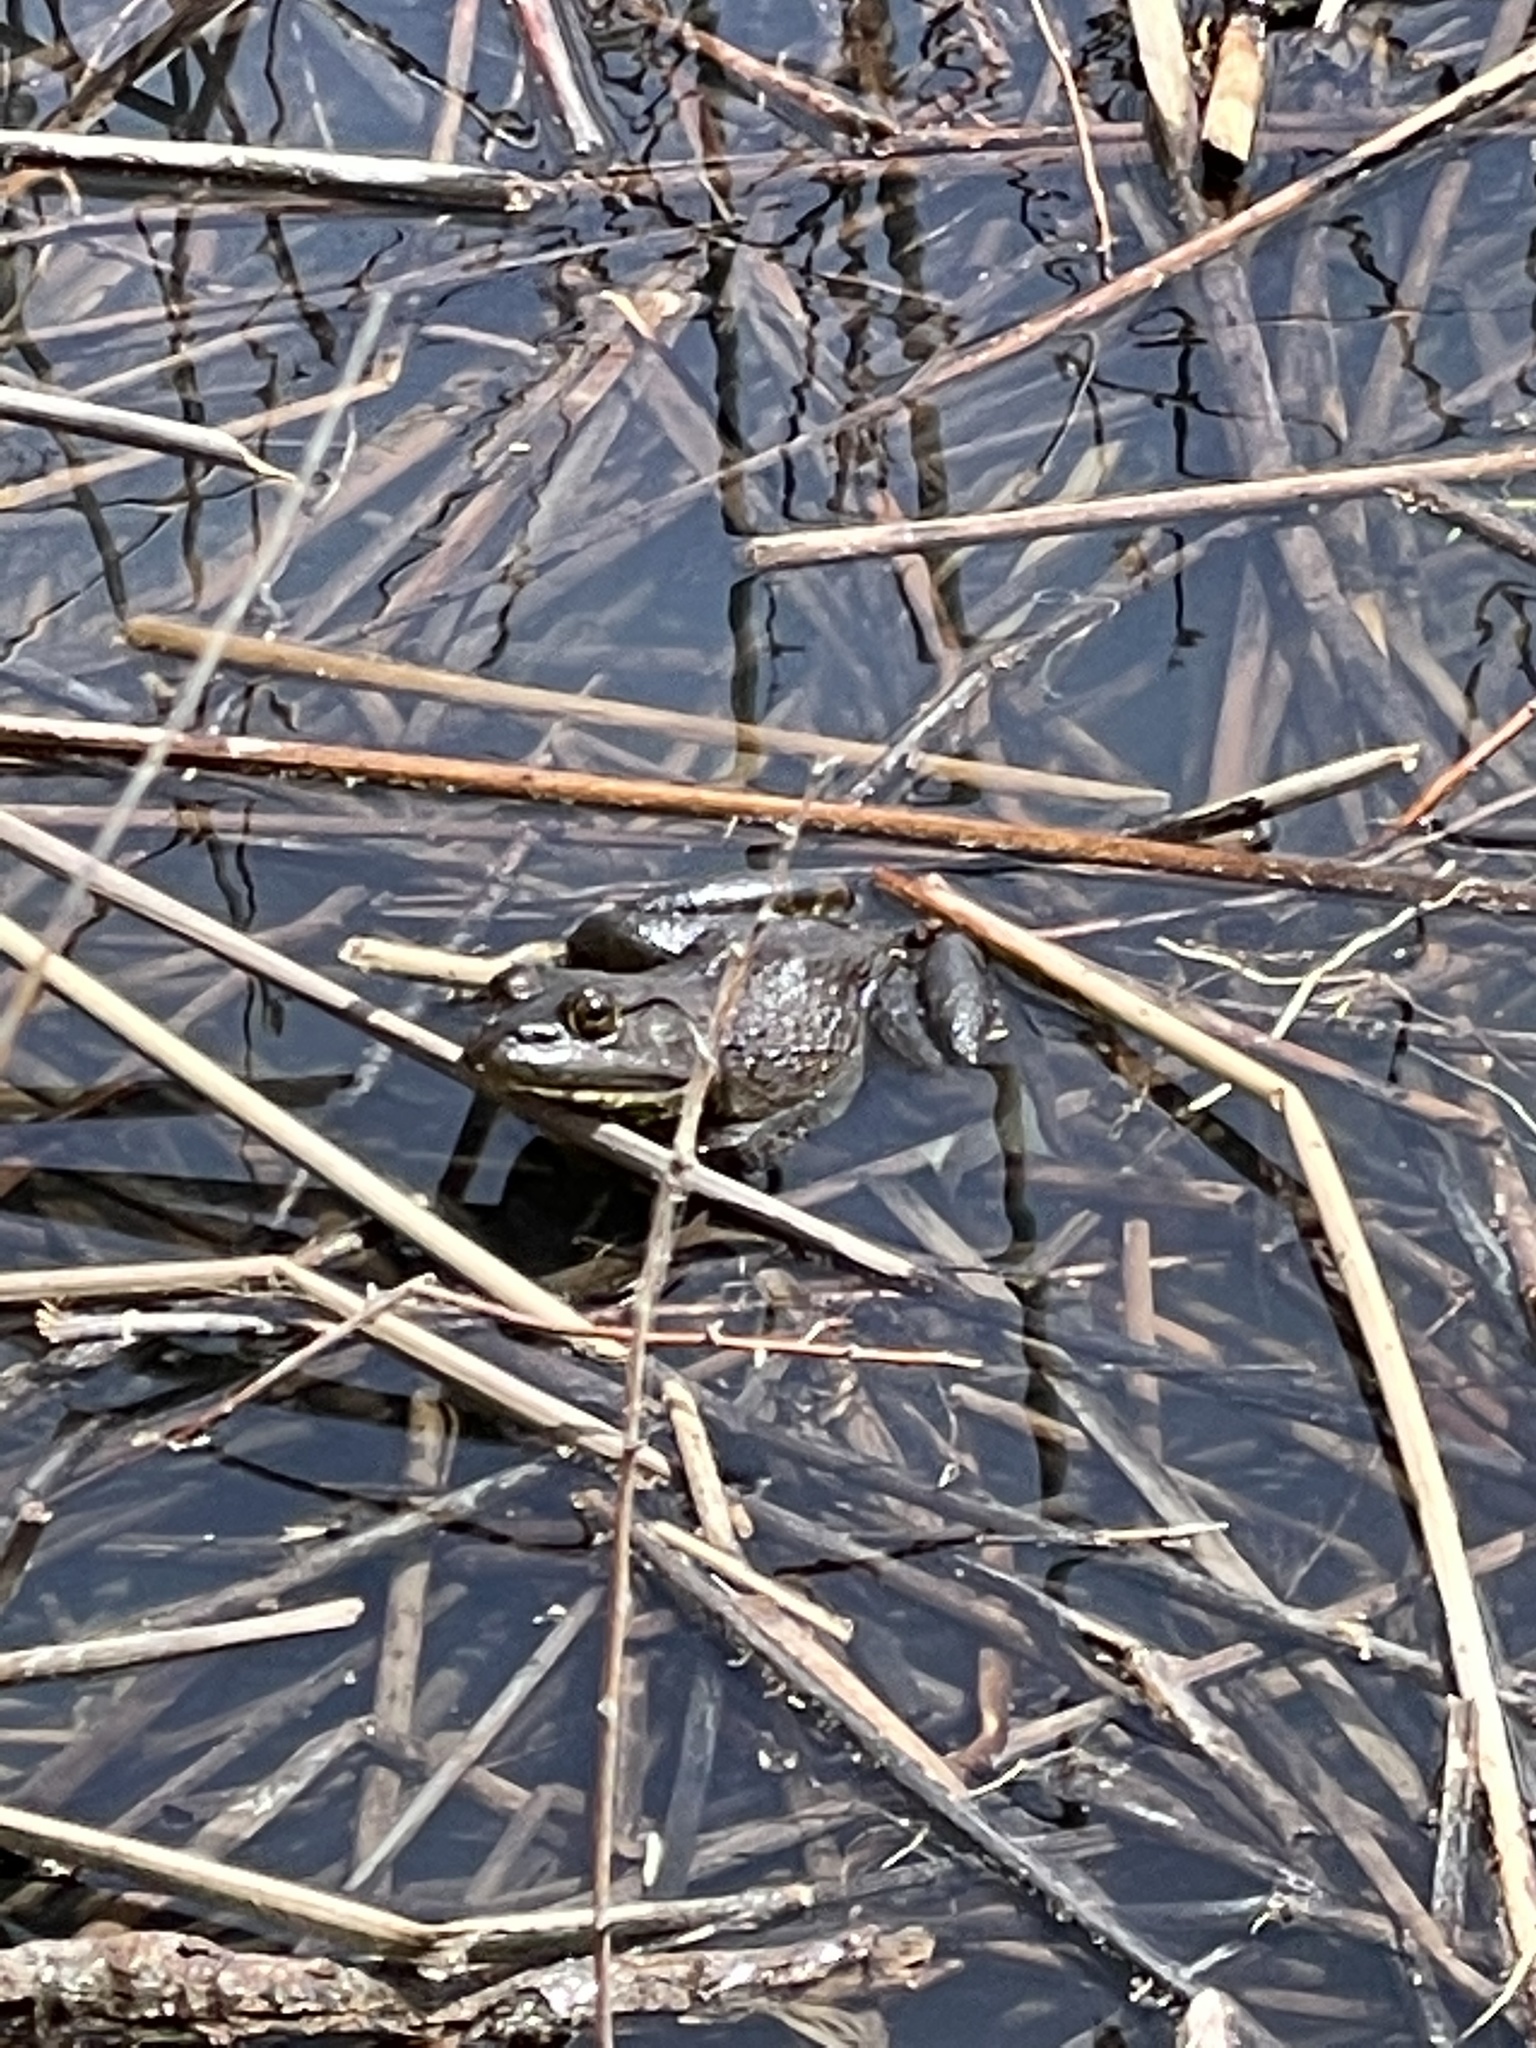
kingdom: Animalia
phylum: Chordata
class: Amphibia
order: Anura
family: Ranidae
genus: Lithobates
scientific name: Lithobates catesbeianus
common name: American bullfrog
